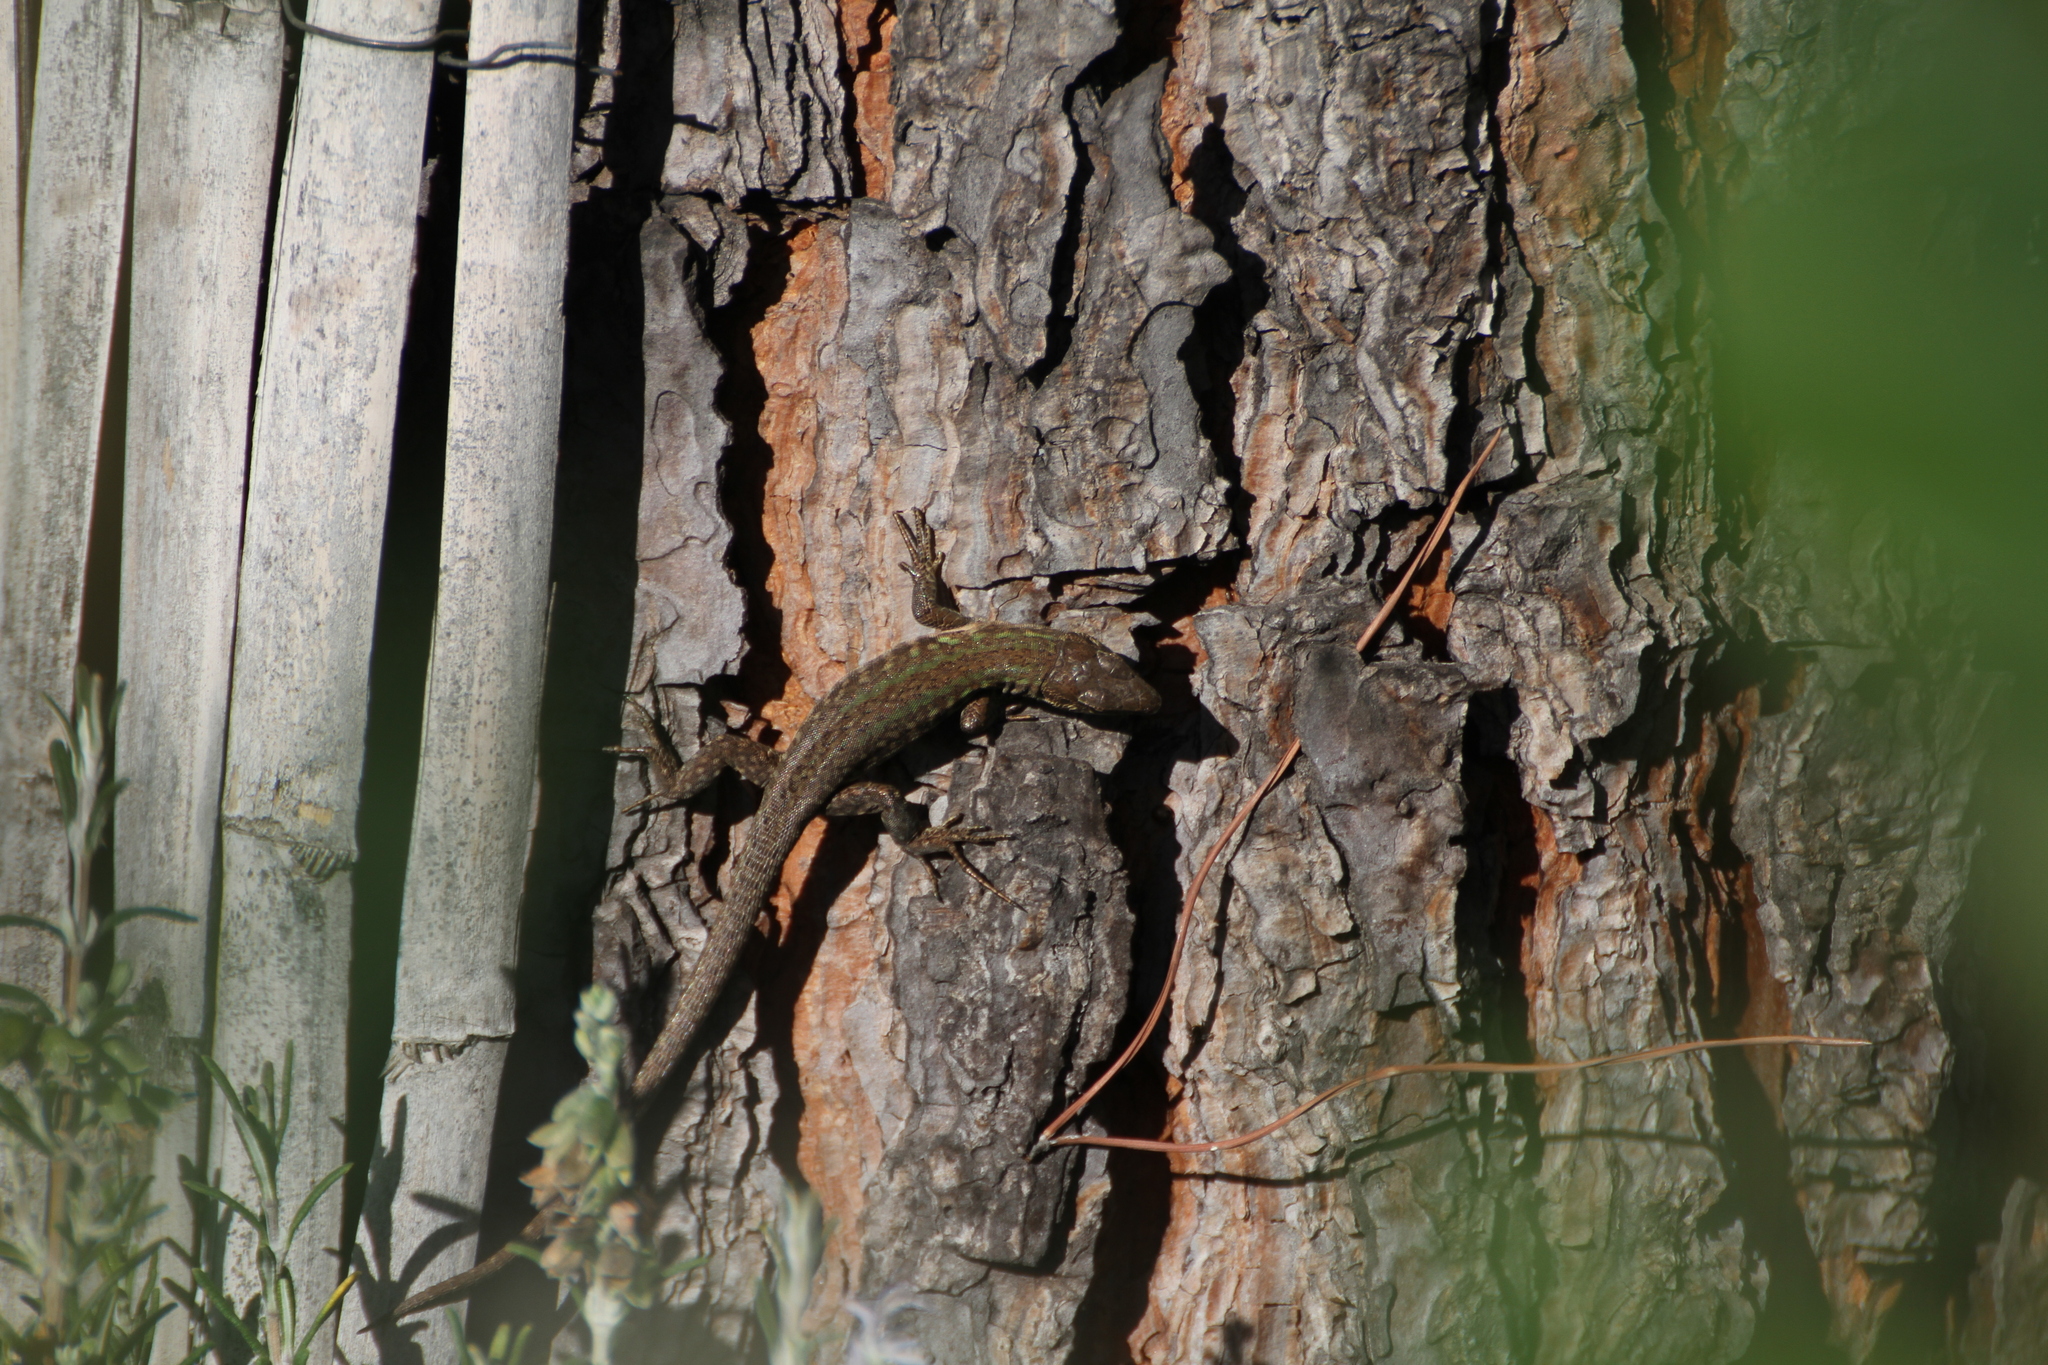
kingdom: Animalia
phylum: Chordata
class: Squamata
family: Lacertidae
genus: Podarcis
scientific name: Podarcis siculus
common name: Italian wall lizard
